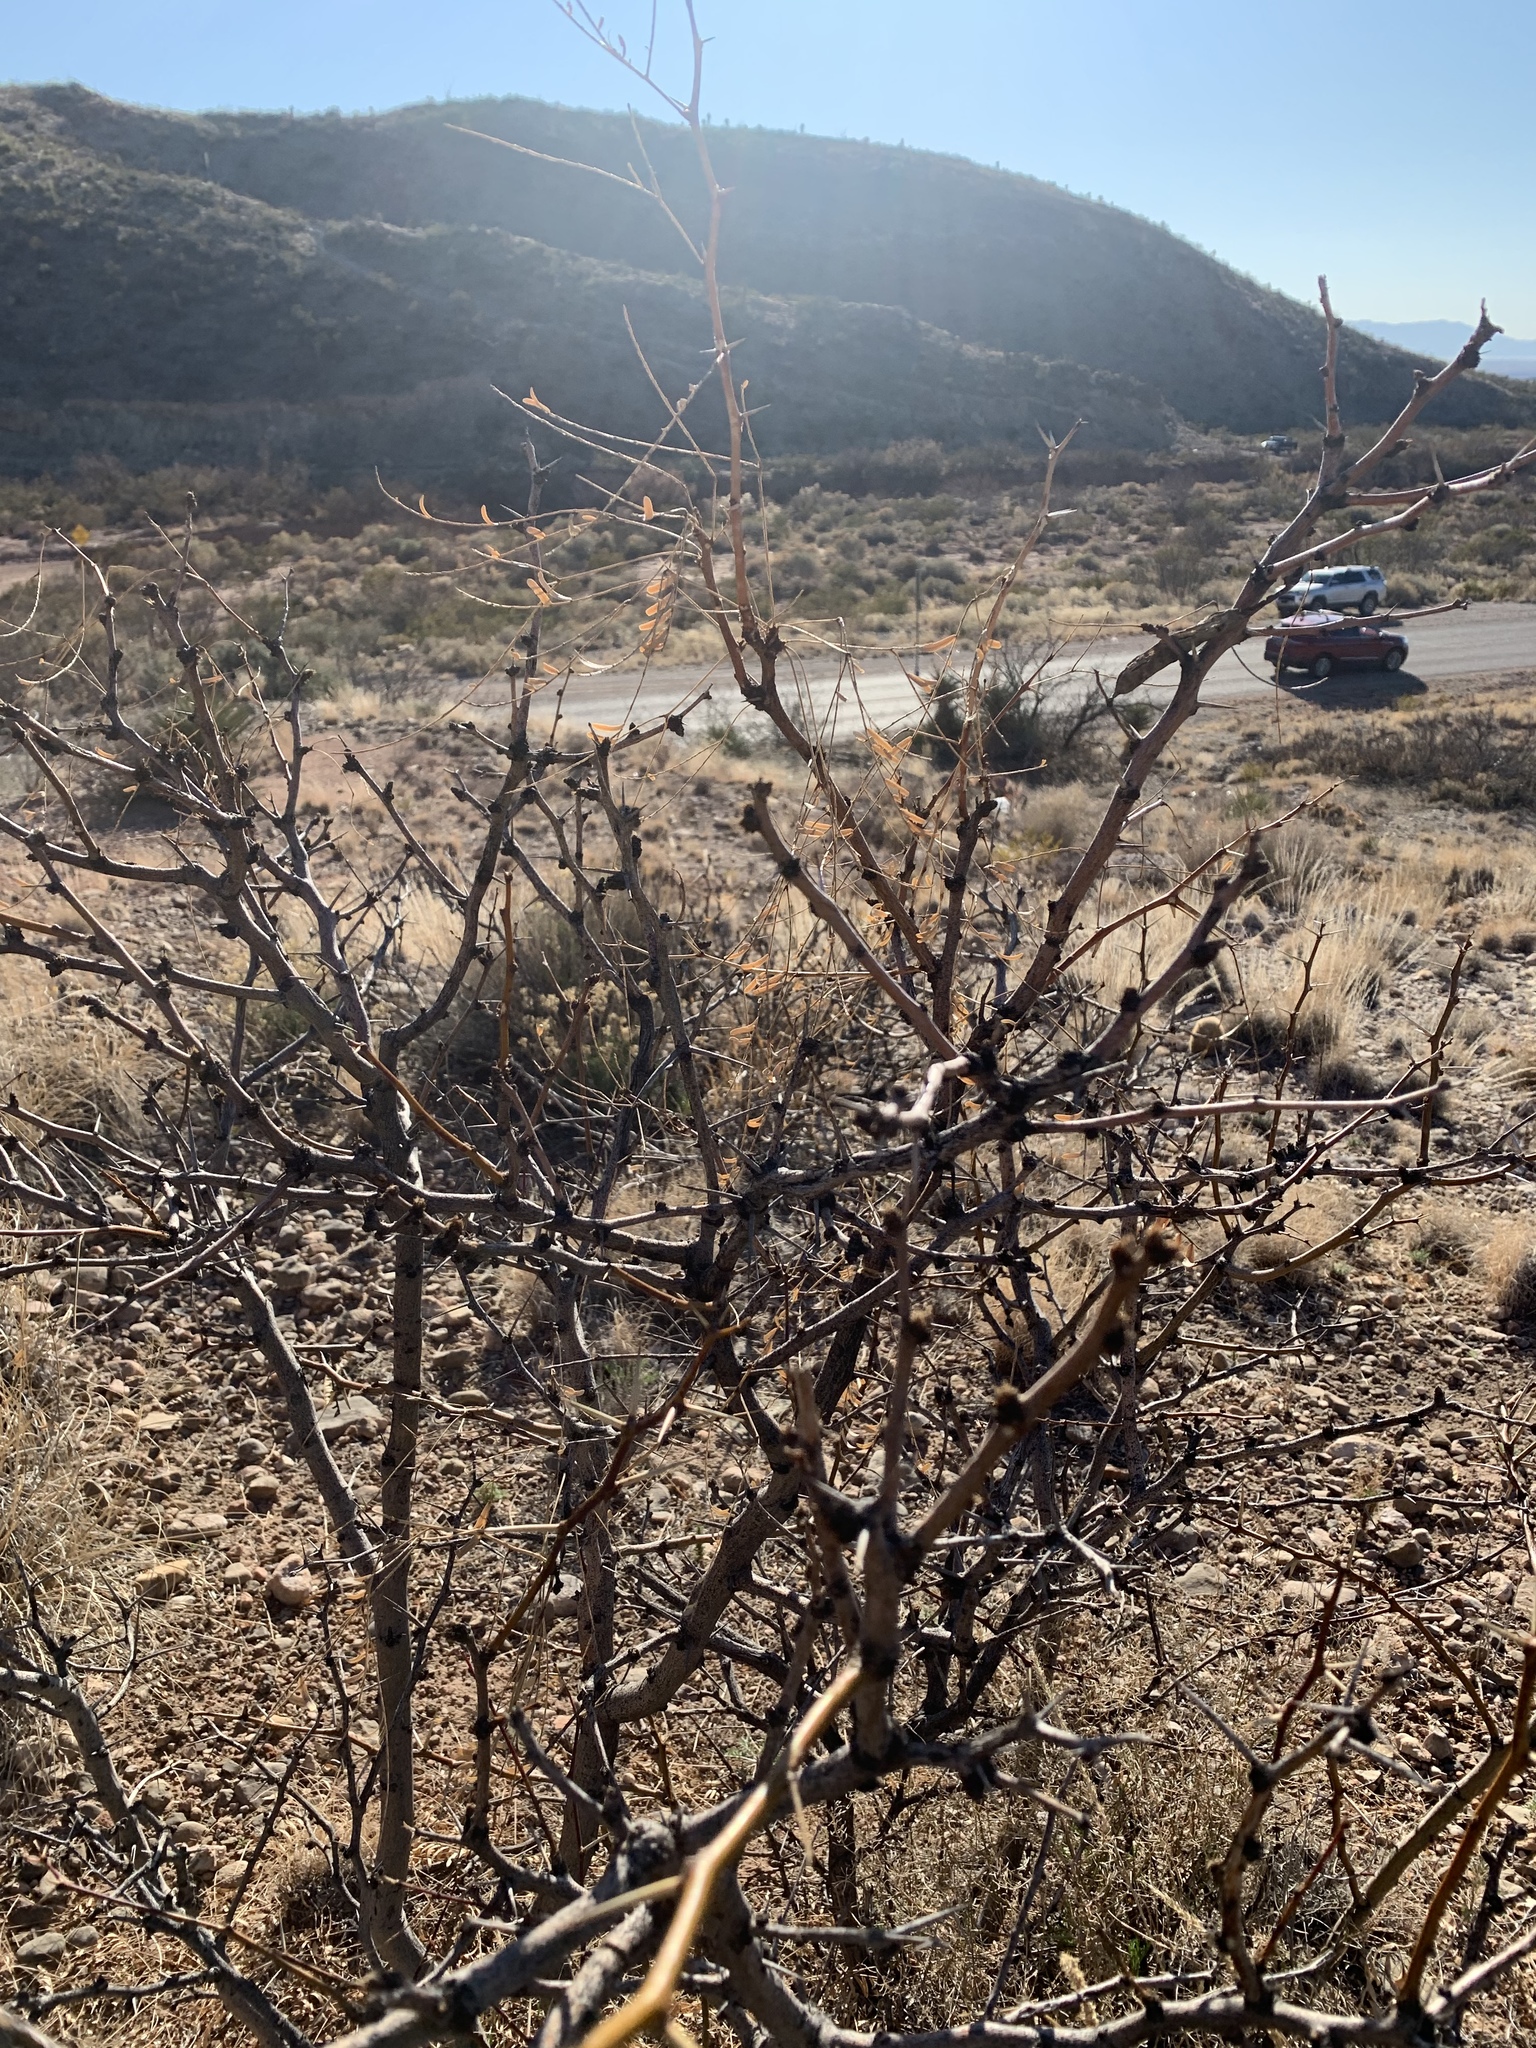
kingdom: Plantae
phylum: Tracheophyta
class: Magnoliopsida
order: Fabales
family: Fabaceae
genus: Prosopis
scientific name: Prosopis glandulosa
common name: Honey mesquite
